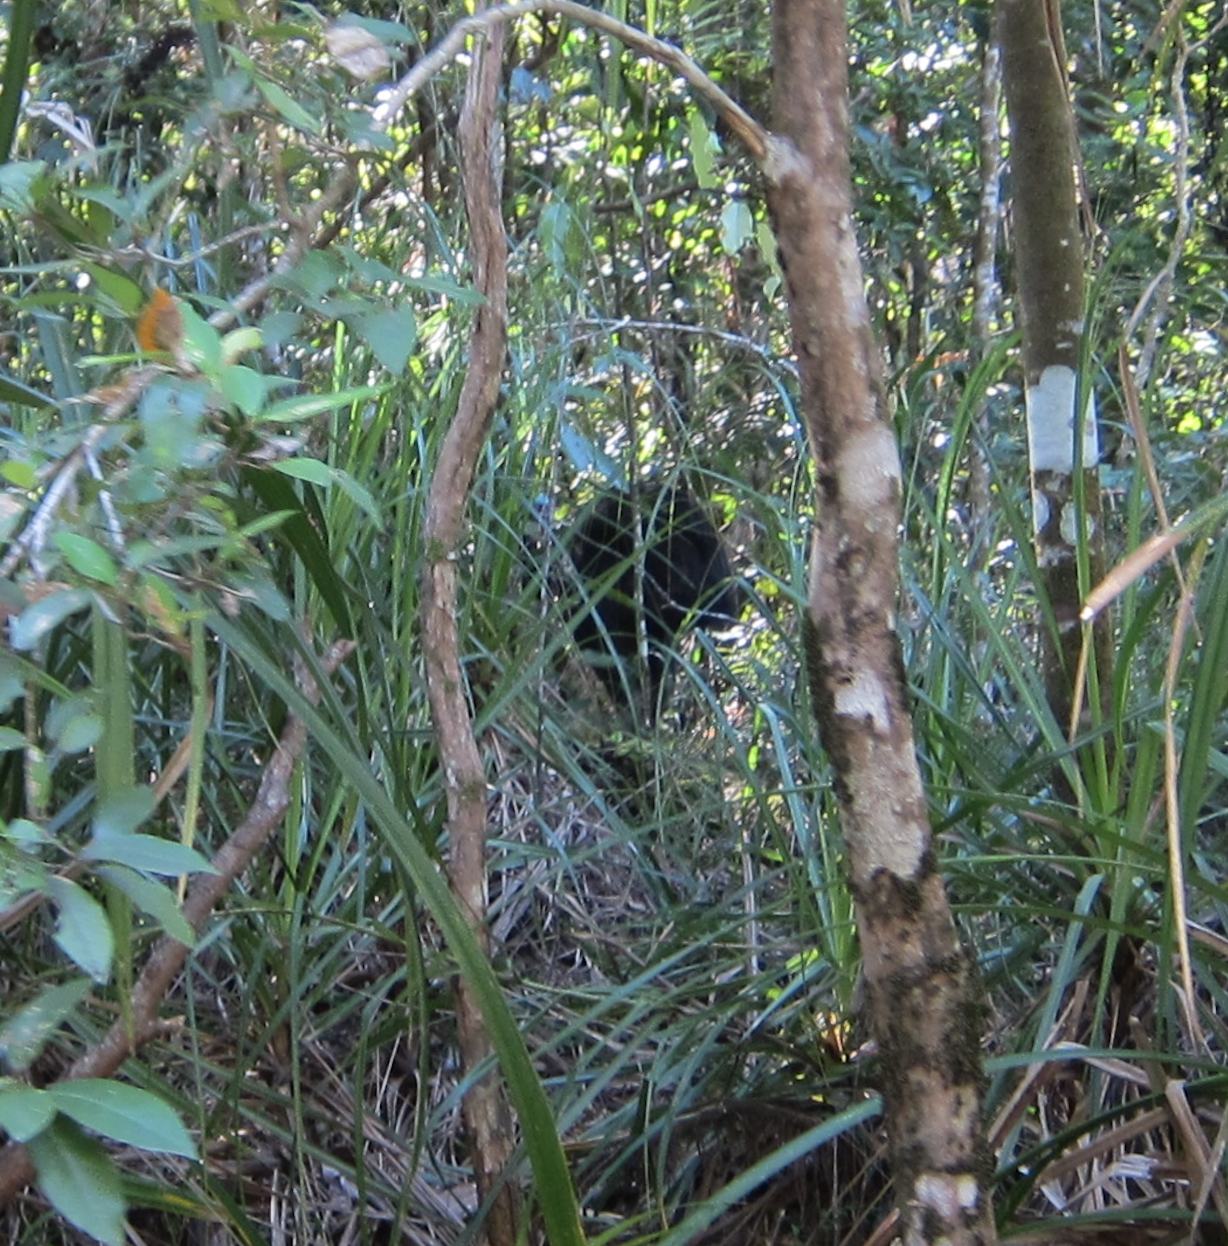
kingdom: Animalia
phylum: Chordata
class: Aves
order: Casuariiformes
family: Casuariidae
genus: Casuarius
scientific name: Casuarius casuarius
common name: Southern cassowary
